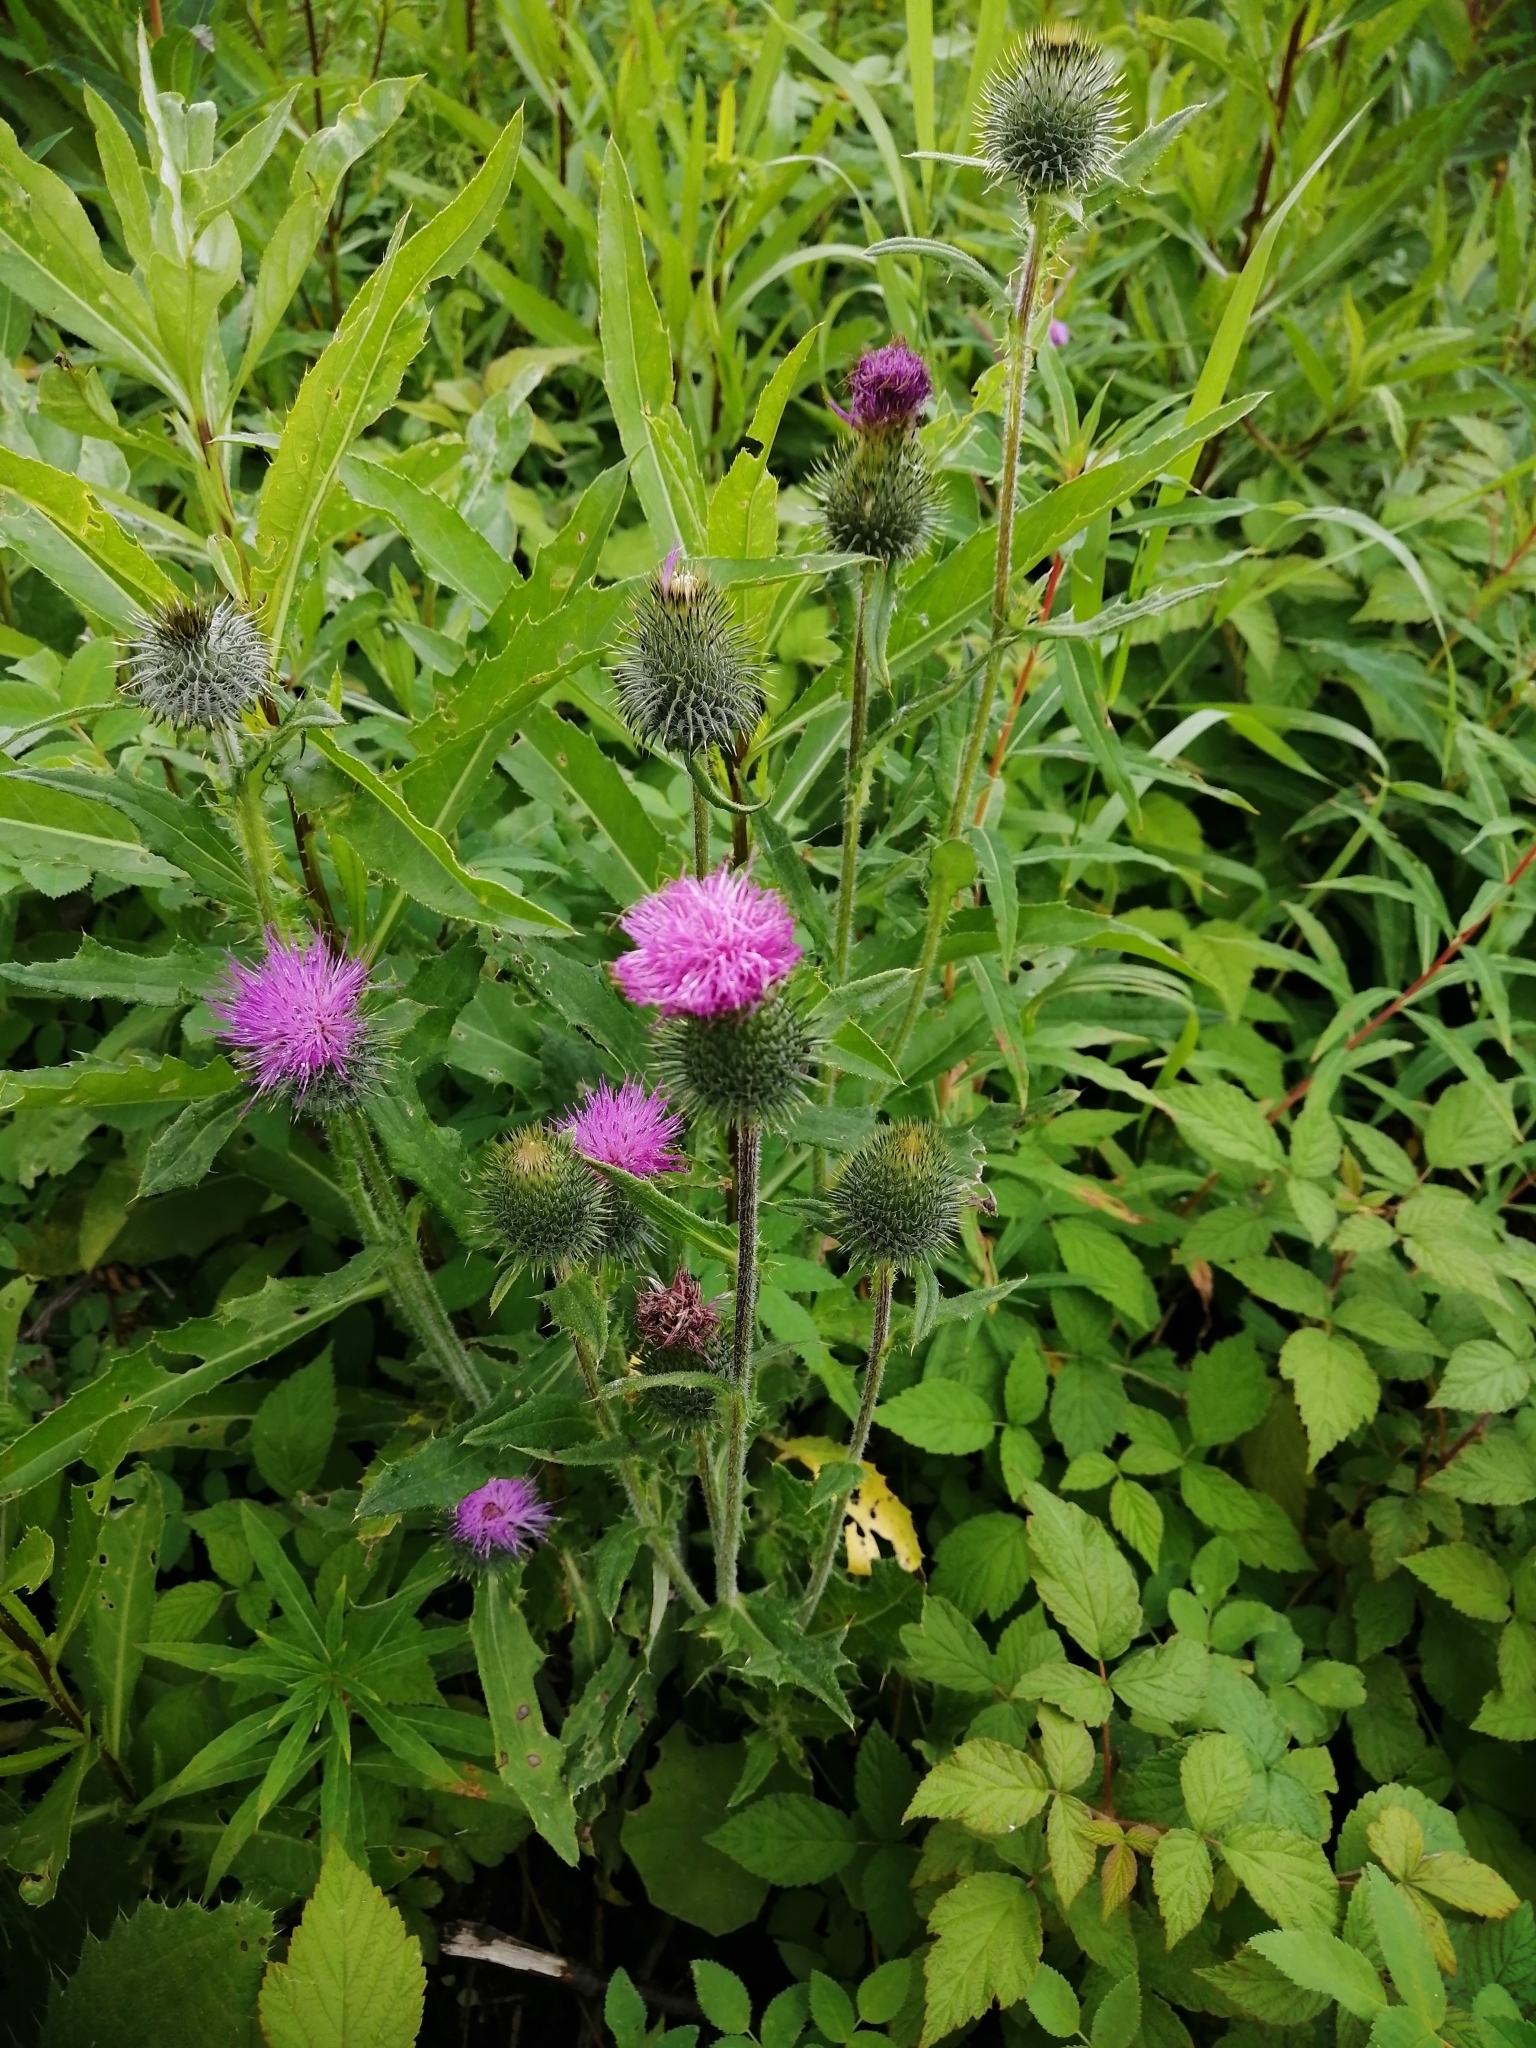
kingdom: Plantae
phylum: Tracheophyta
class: Magnoliopsida
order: Asterales
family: Asteraceae
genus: Cirsium
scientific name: Cirsium vulgare
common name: Bull thistle
